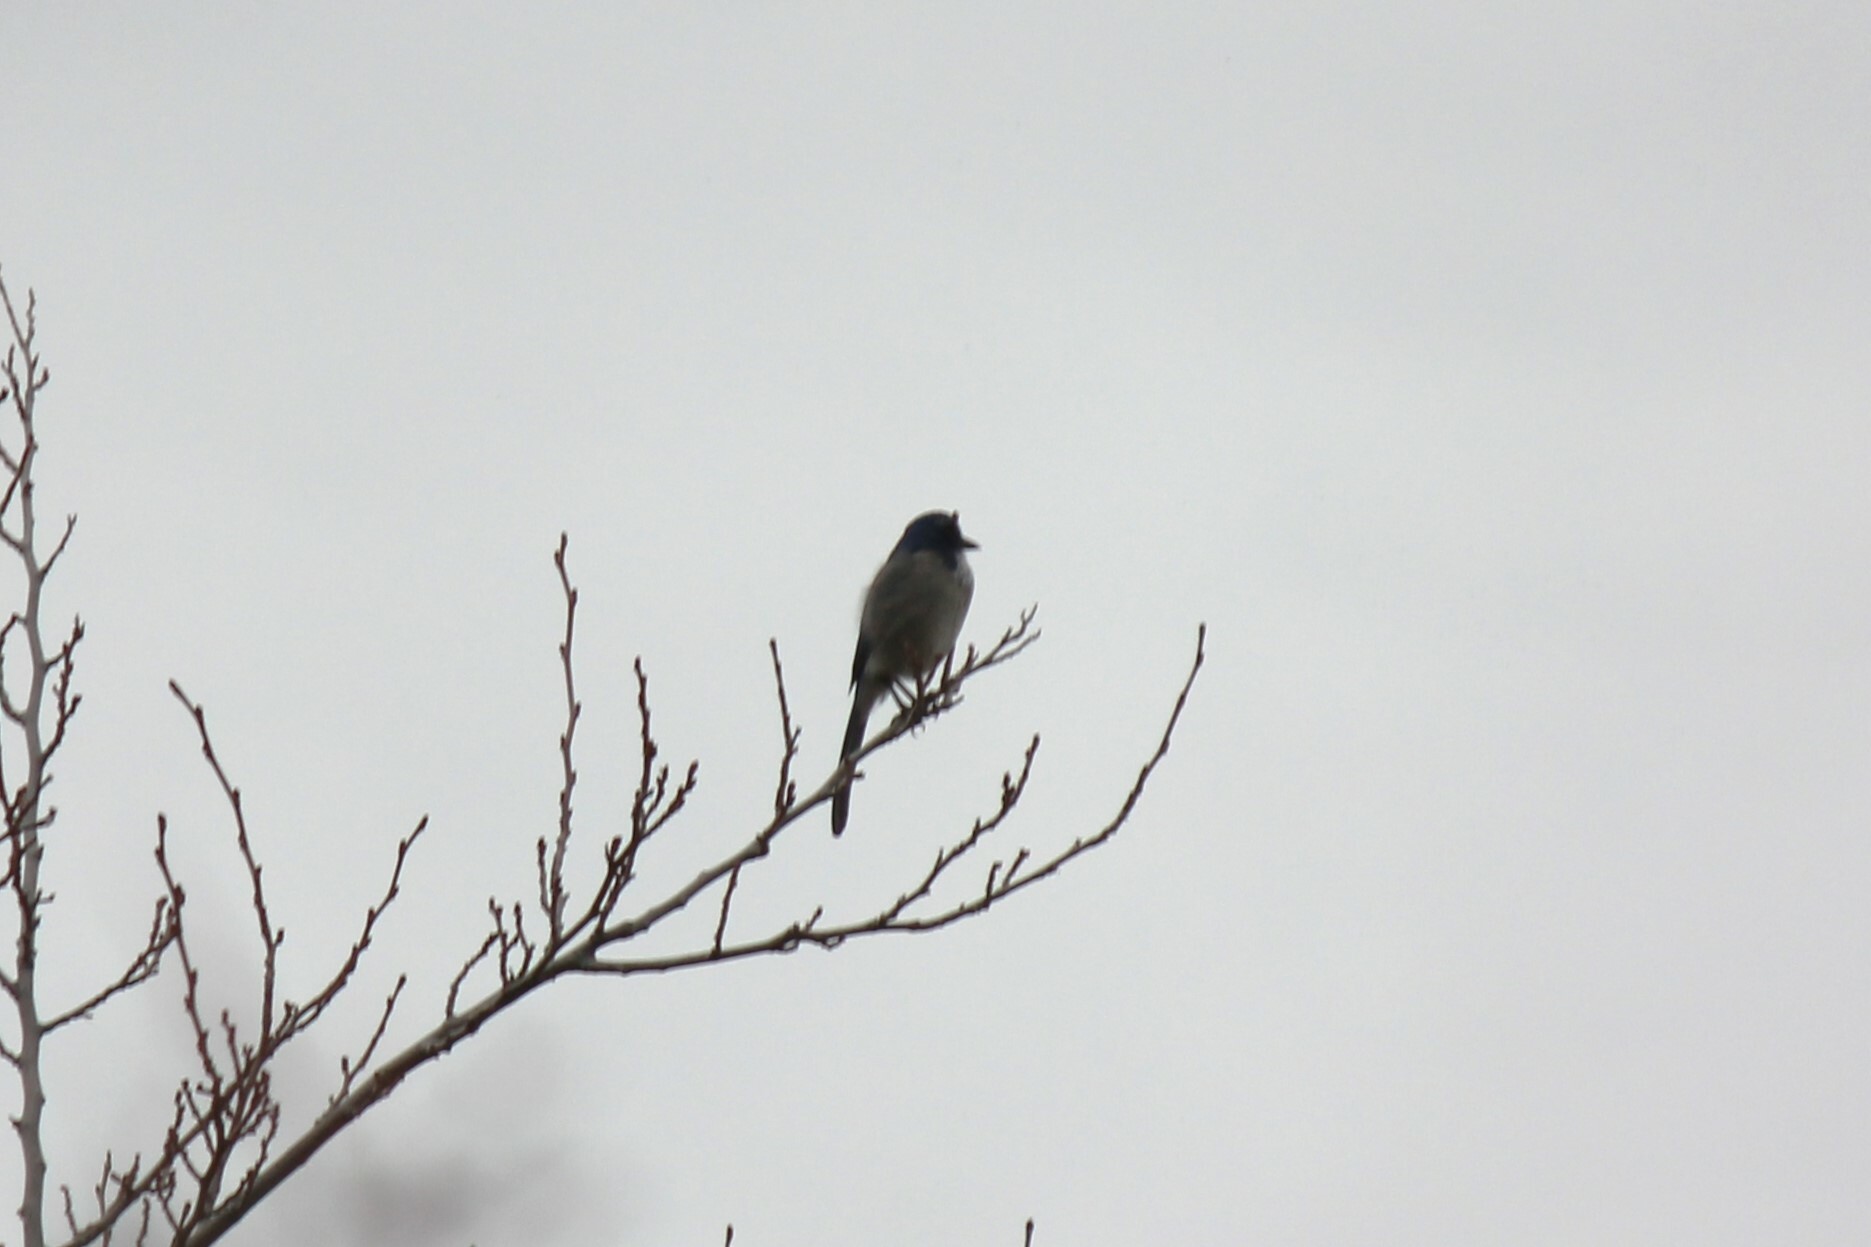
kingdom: Animalia
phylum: Chordata
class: Aves
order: Passeriformes
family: Corvidae
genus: Aphelocoma
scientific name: Aphelocoma californica
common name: California scrub-jay
